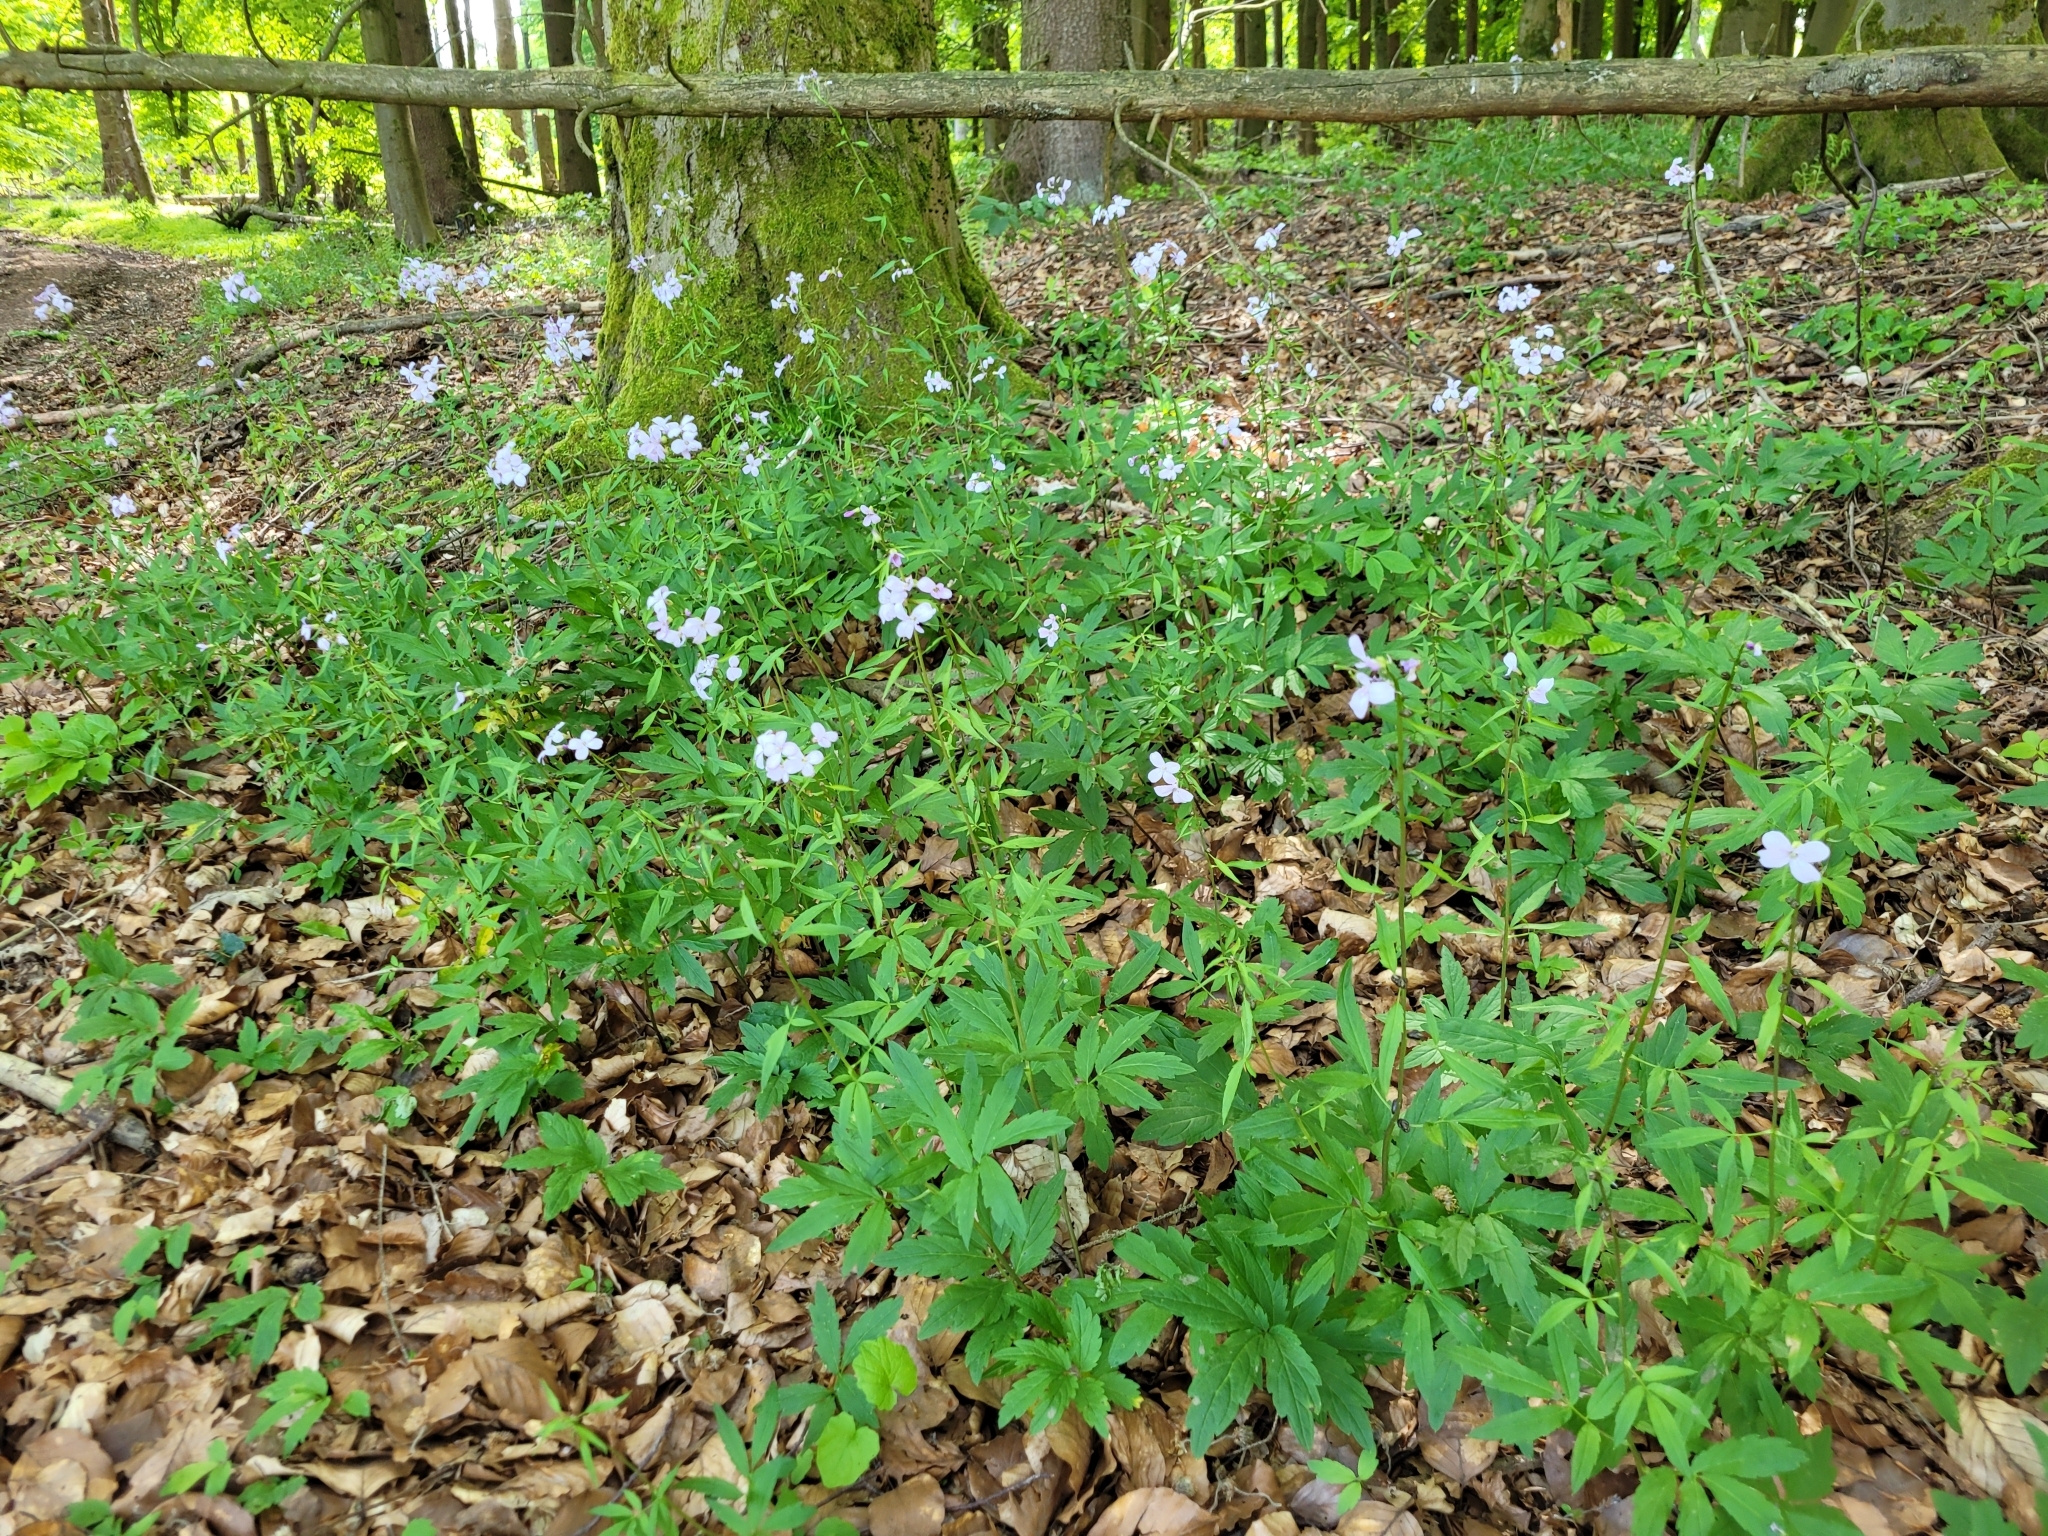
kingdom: Plantae
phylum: Tracheophyta
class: Magnoliopsida
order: Brassicales
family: Brassicaceae
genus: Cardamine
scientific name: Cardamine bulbifera
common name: Coralroot bittercress
